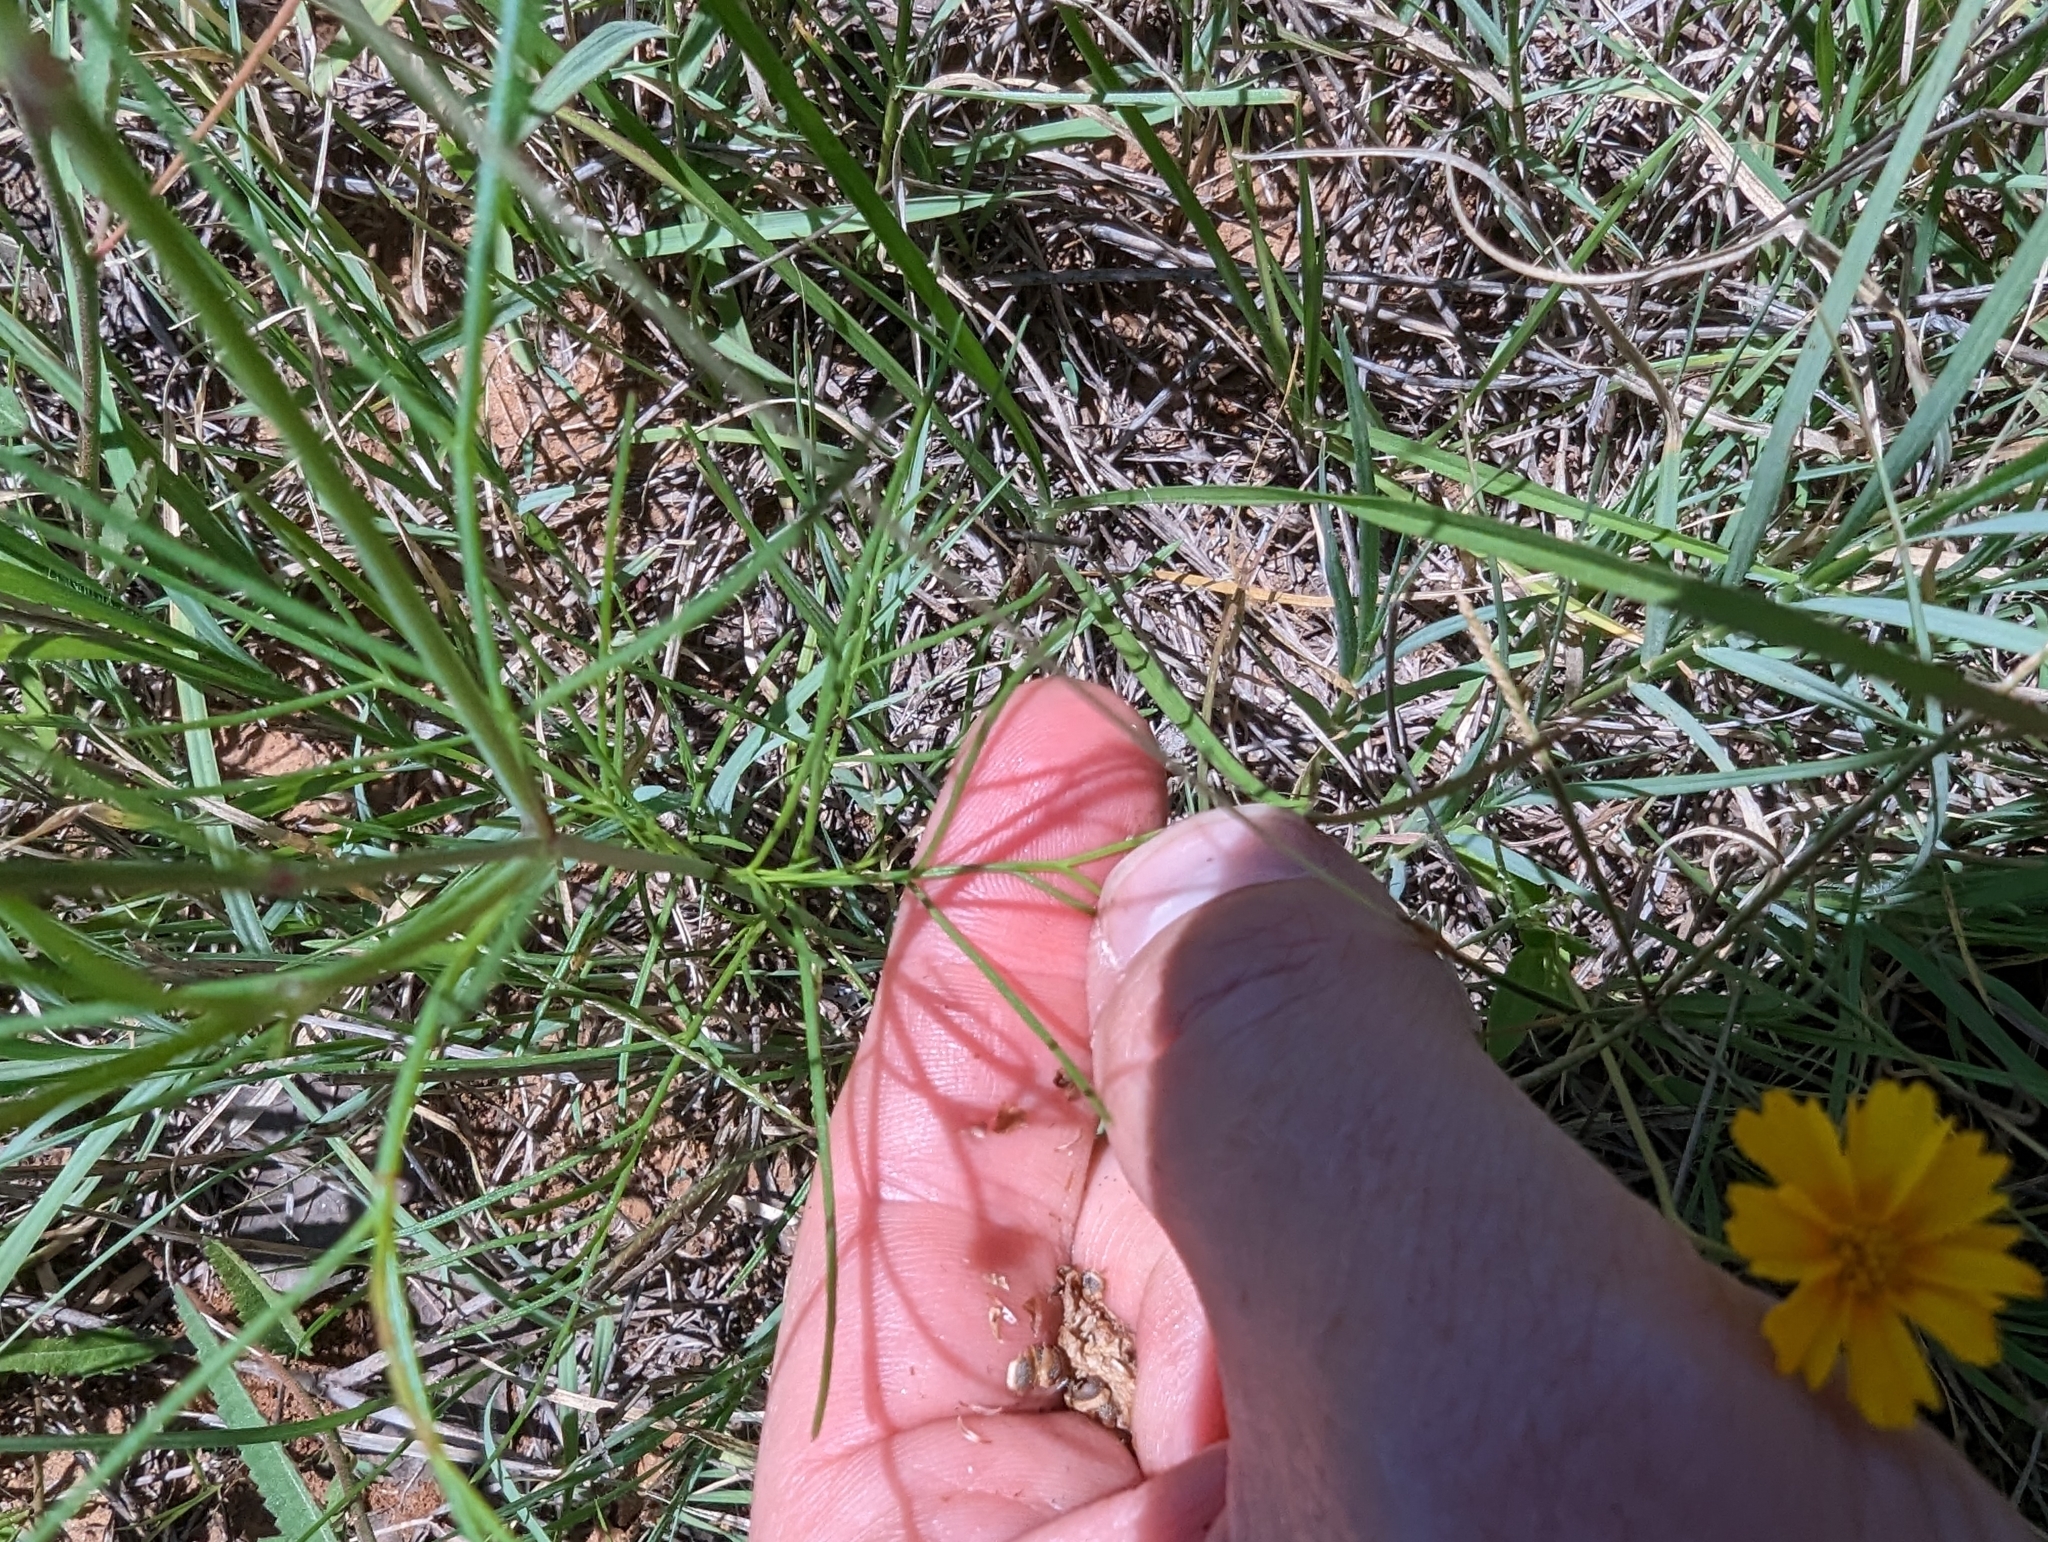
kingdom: Plantae
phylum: Tracheophyta
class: Magnoliopsida
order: Asterales
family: Asteraceae
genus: Thelesperma
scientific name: Thelesperma burridgeanum
